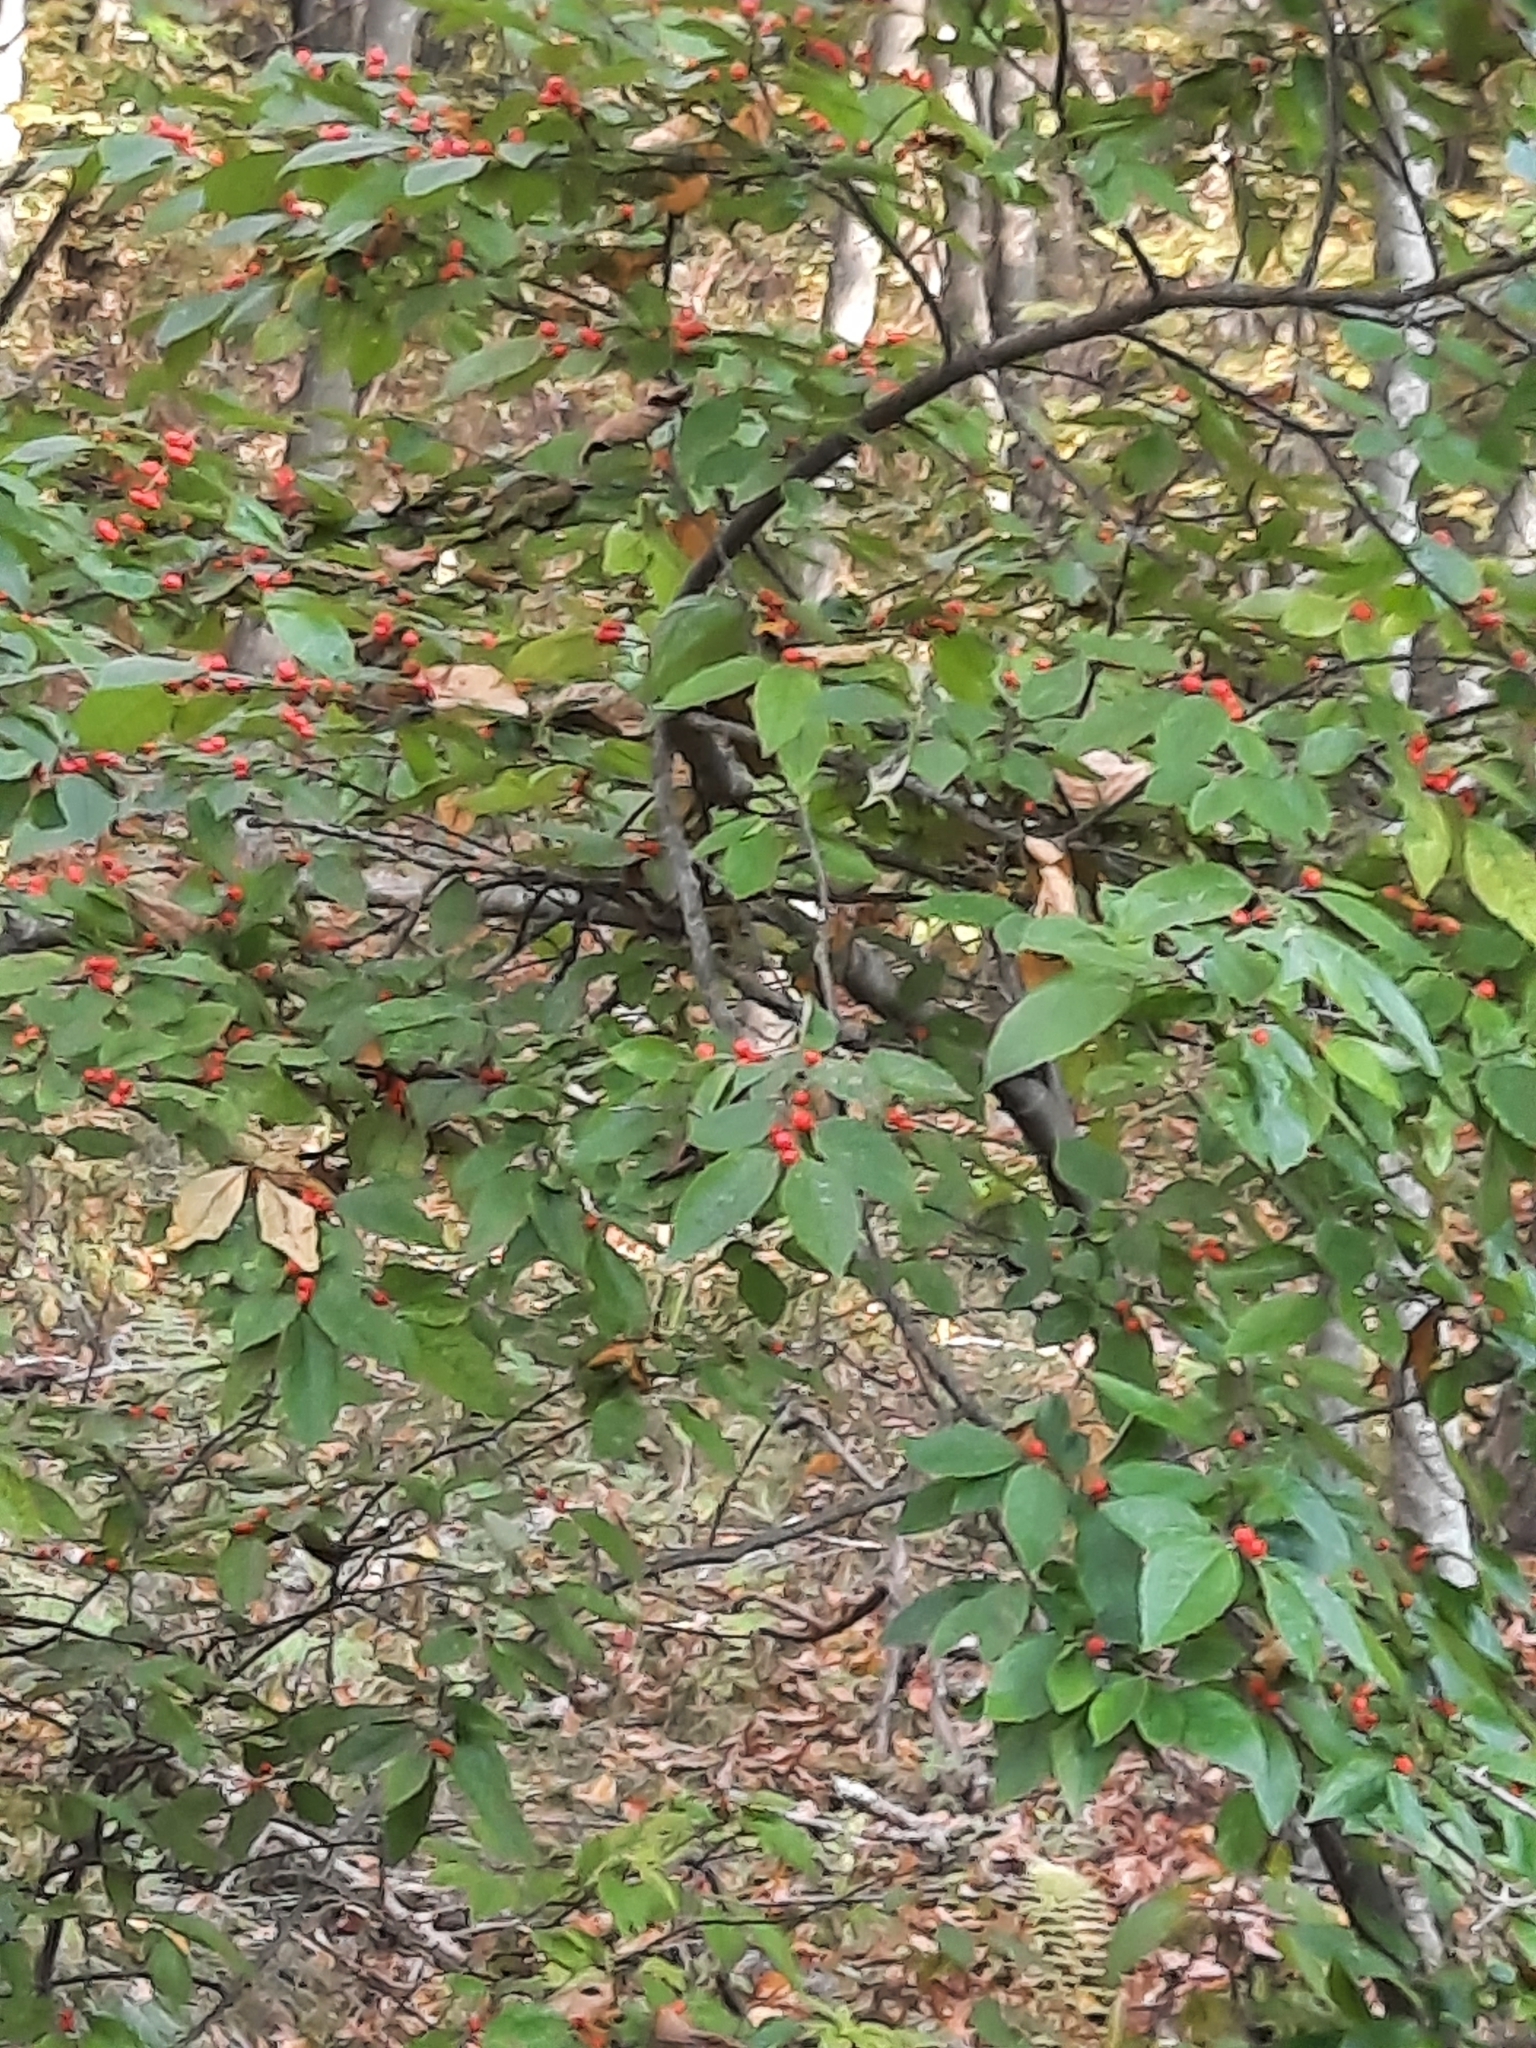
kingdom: Plantae
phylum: Tracheophyta
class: Magnoliopsida
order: Aquifoliales
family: Aquifoliaceae
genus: Ilex
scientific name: Ilex verticillata
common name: Virginia winterberry
